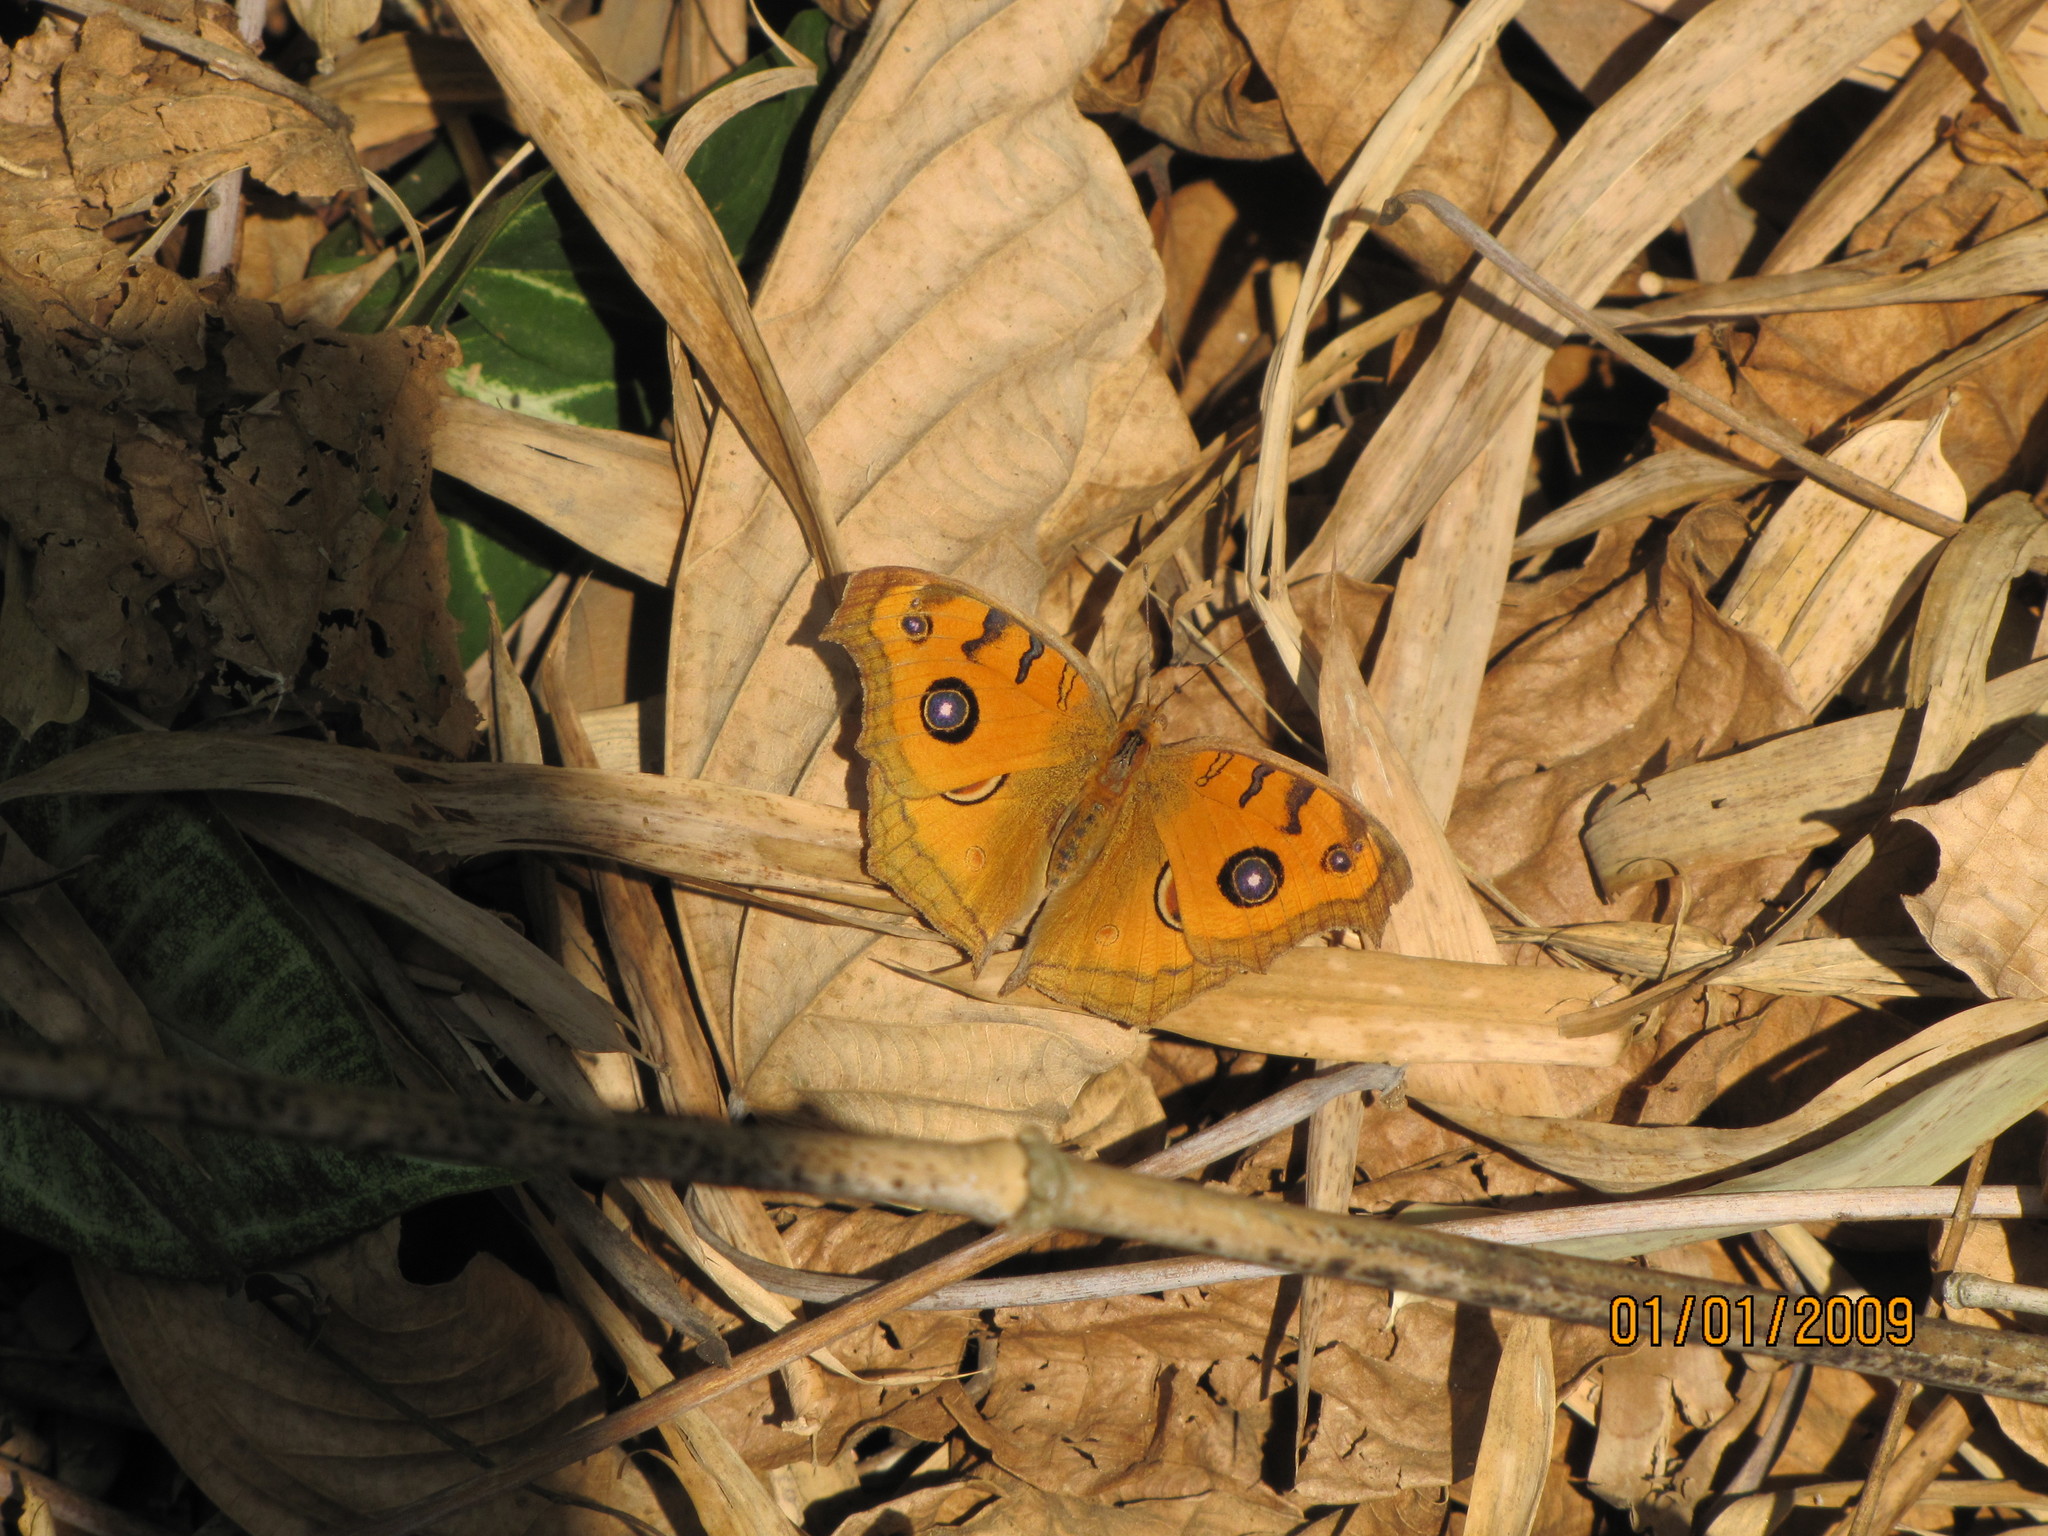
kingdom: Animalia
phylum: Arthropoda
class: Insecta
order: Lepidoptera
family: Nymphalidae
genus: Junonia
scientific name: Junonia almana
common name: Peacock pansy
